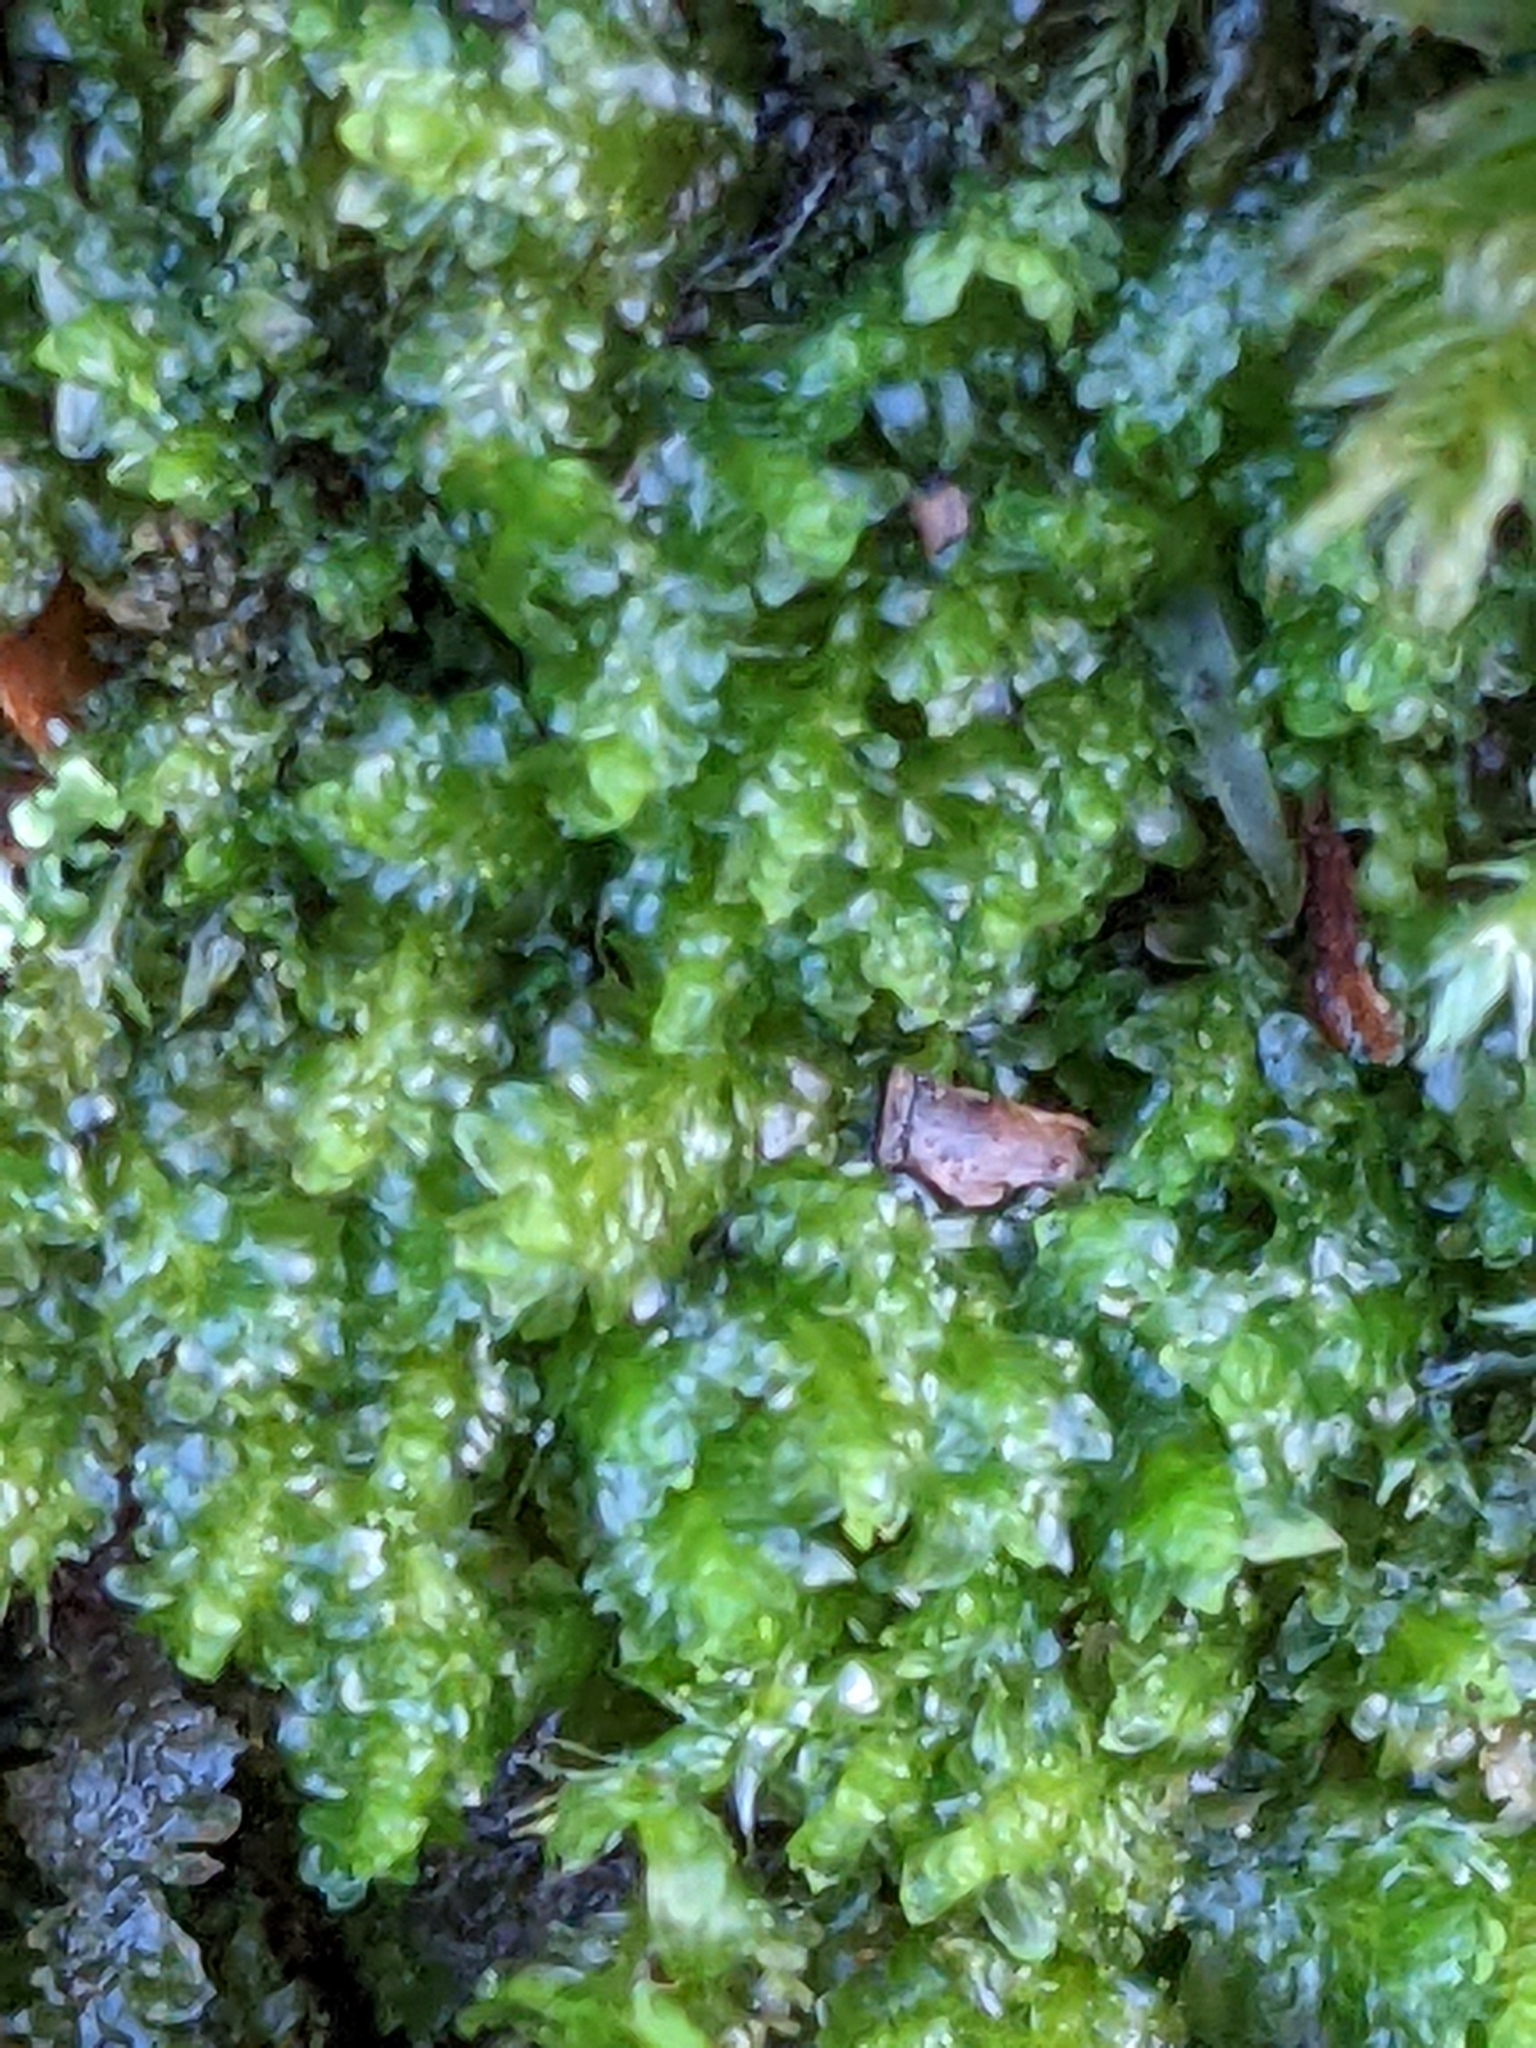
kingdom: Plantae
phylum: Marchantiophyta
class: Jungermanniopsida
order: Jungermanniales
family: Scapaniaceae
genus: Diplophyllum
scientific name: Diplophyllum albicans
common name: White earwort
